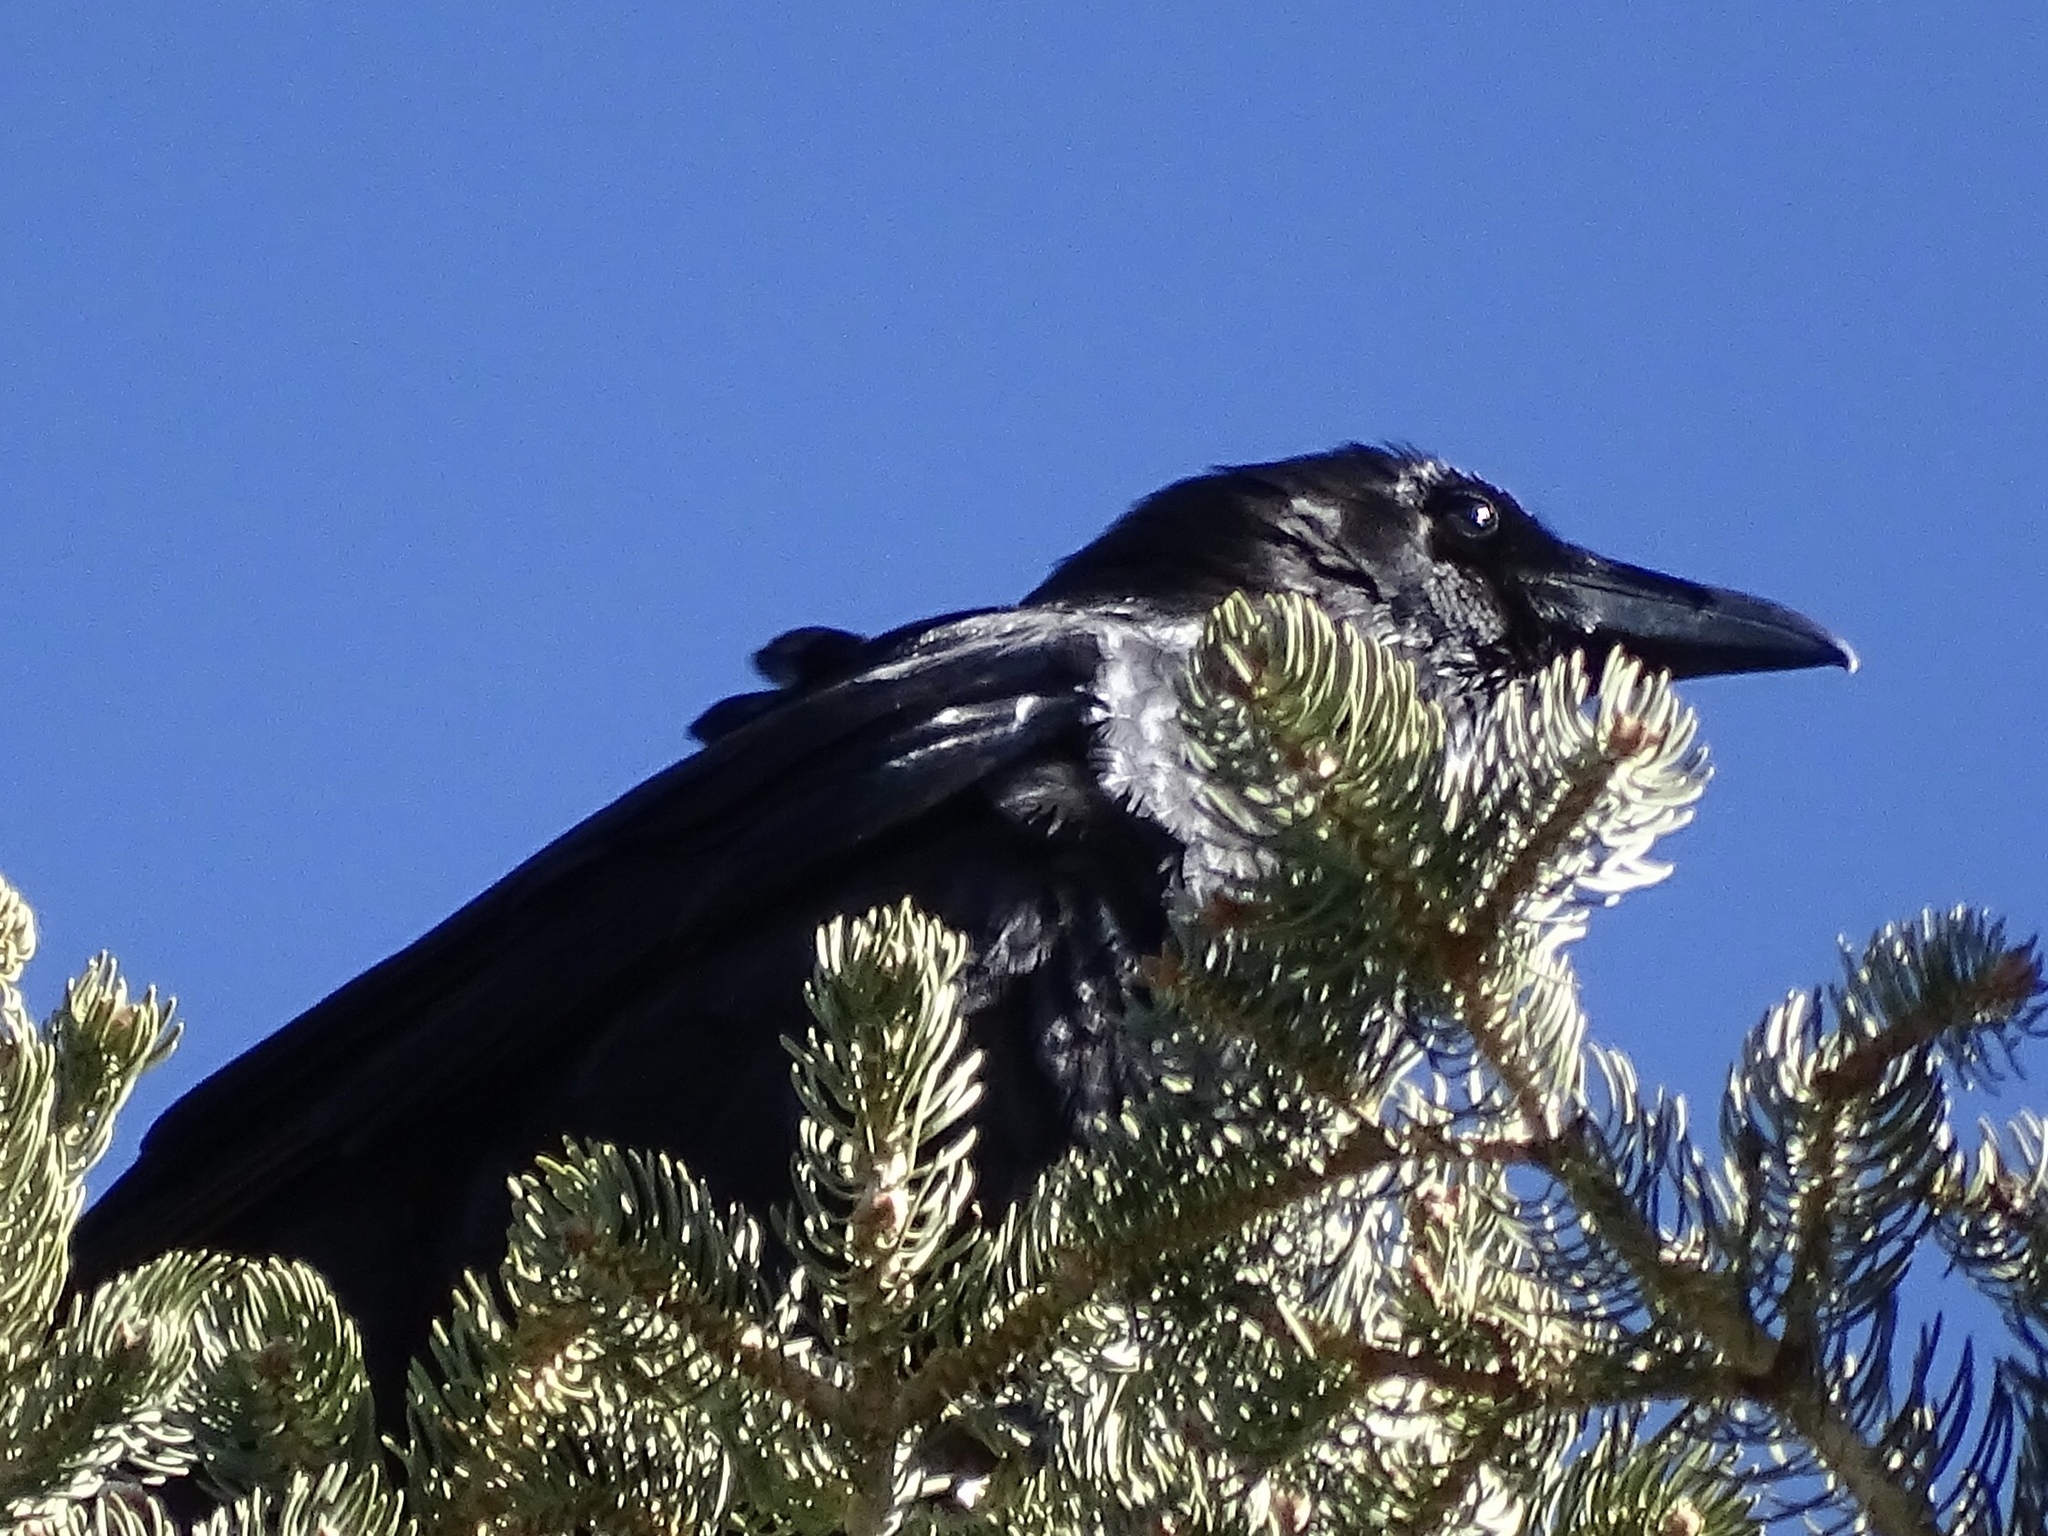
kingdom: Animalia
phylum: Chordata
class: Aves
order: Passeriformes
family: Corvidae
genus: Corvus
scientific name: Corvus corax
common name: Common raven
